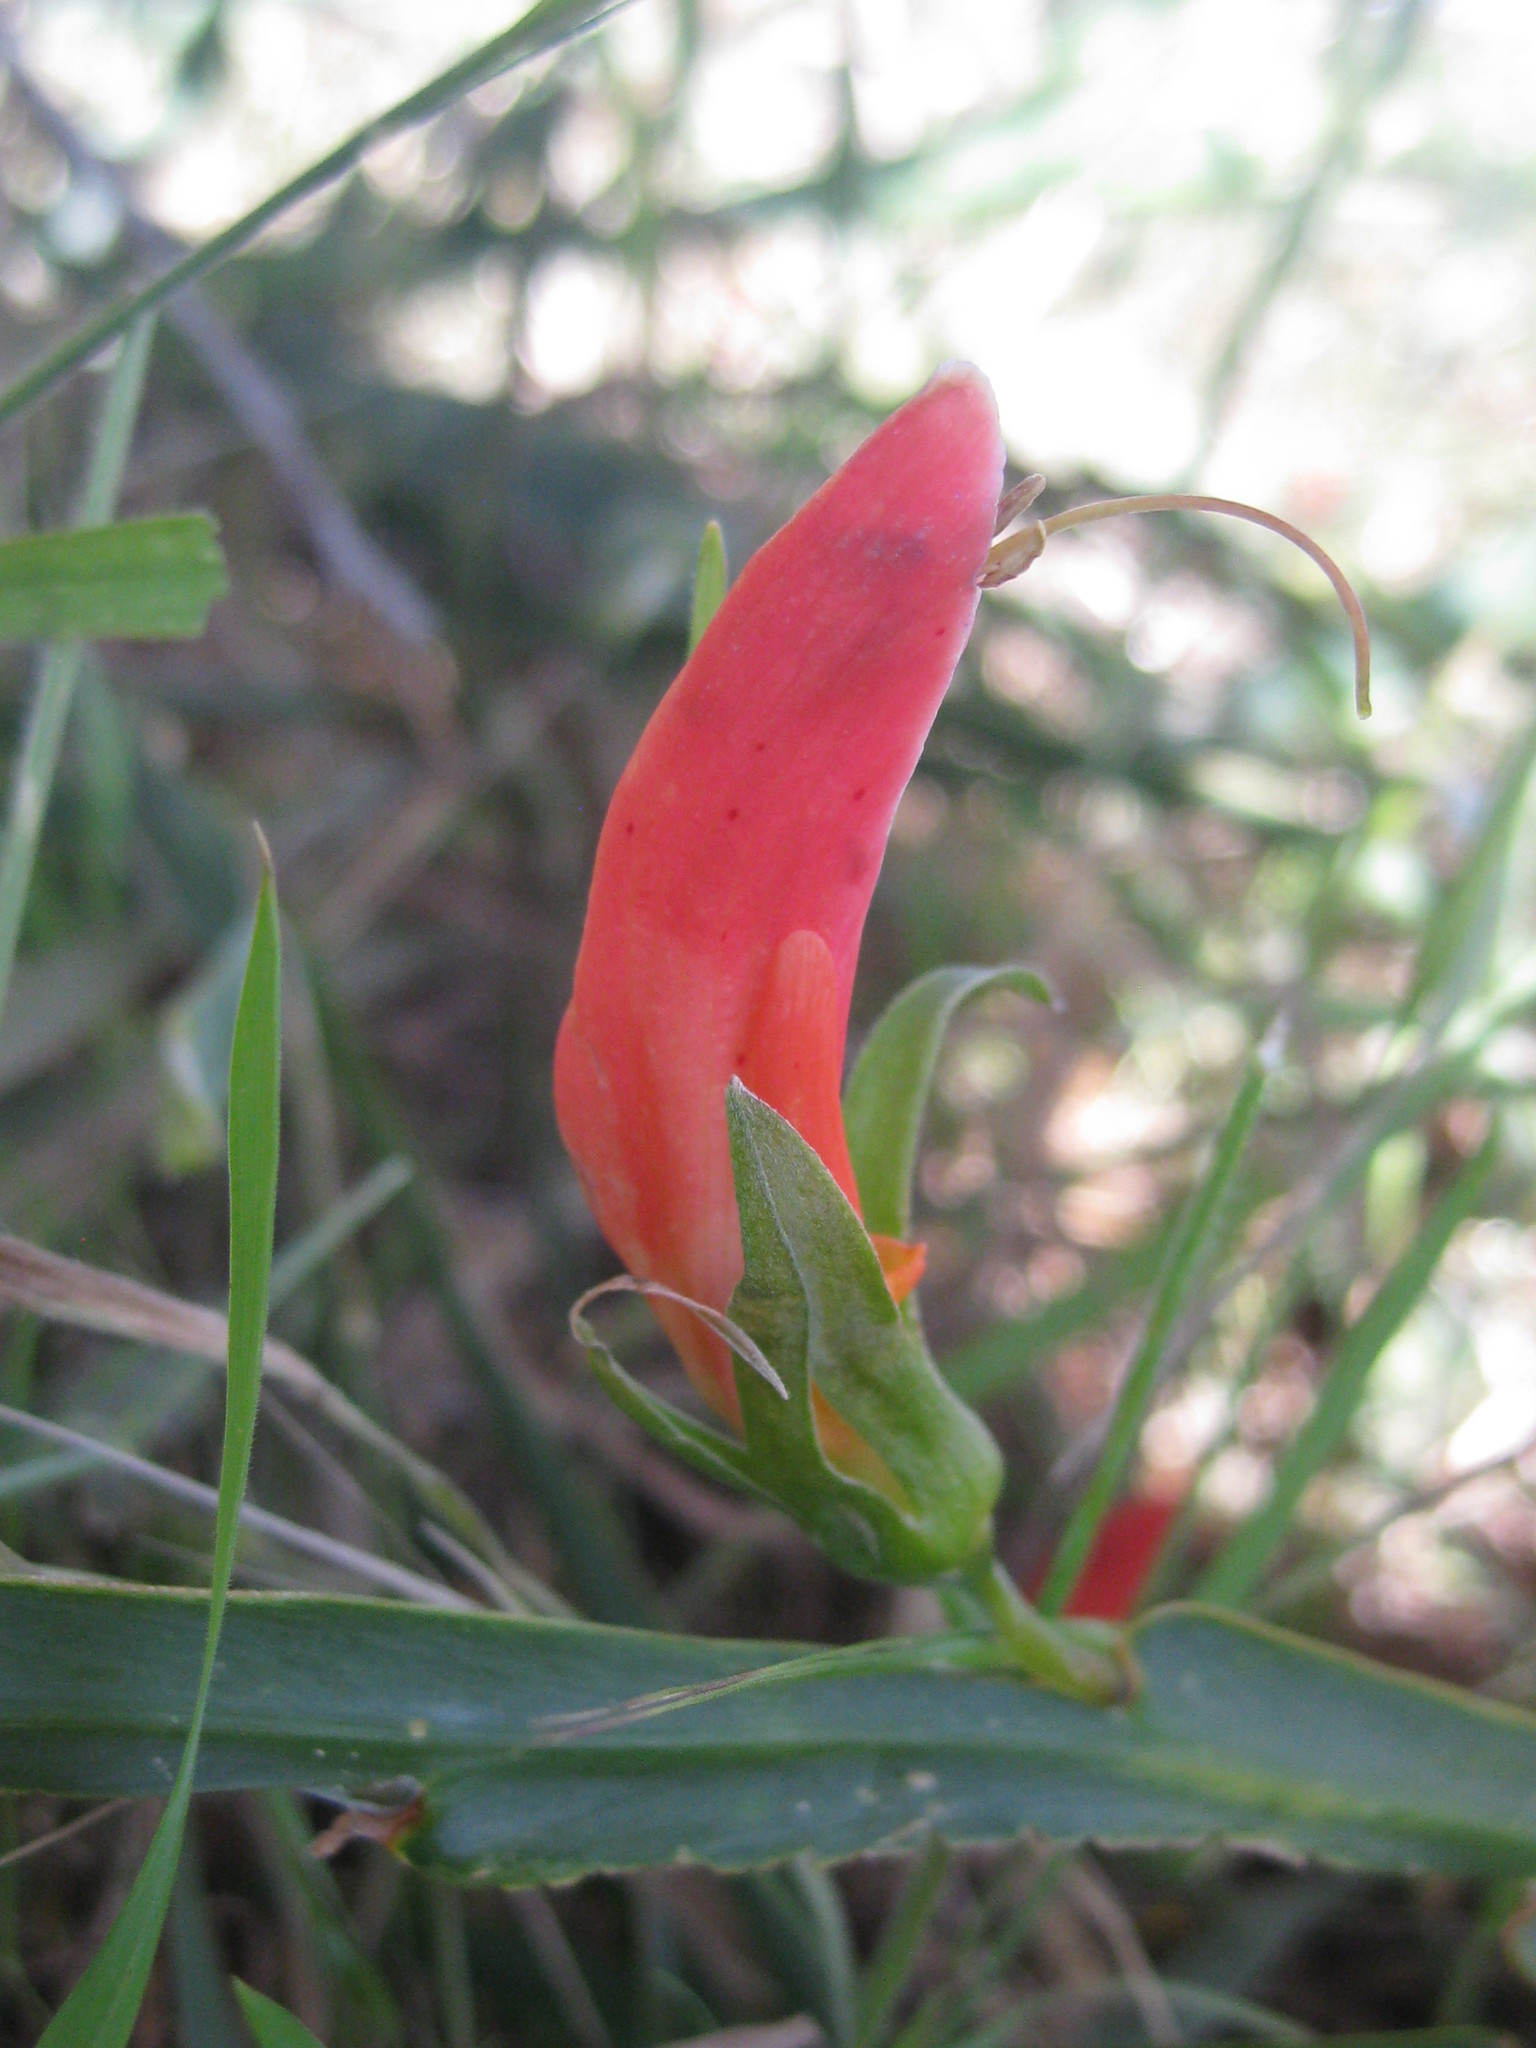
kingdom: Plantae
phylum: Tracheophyta
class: Magnoliopsida
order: Fabales
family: Fabaceae
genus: Leptosema
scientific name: Leptosema aphyllum
